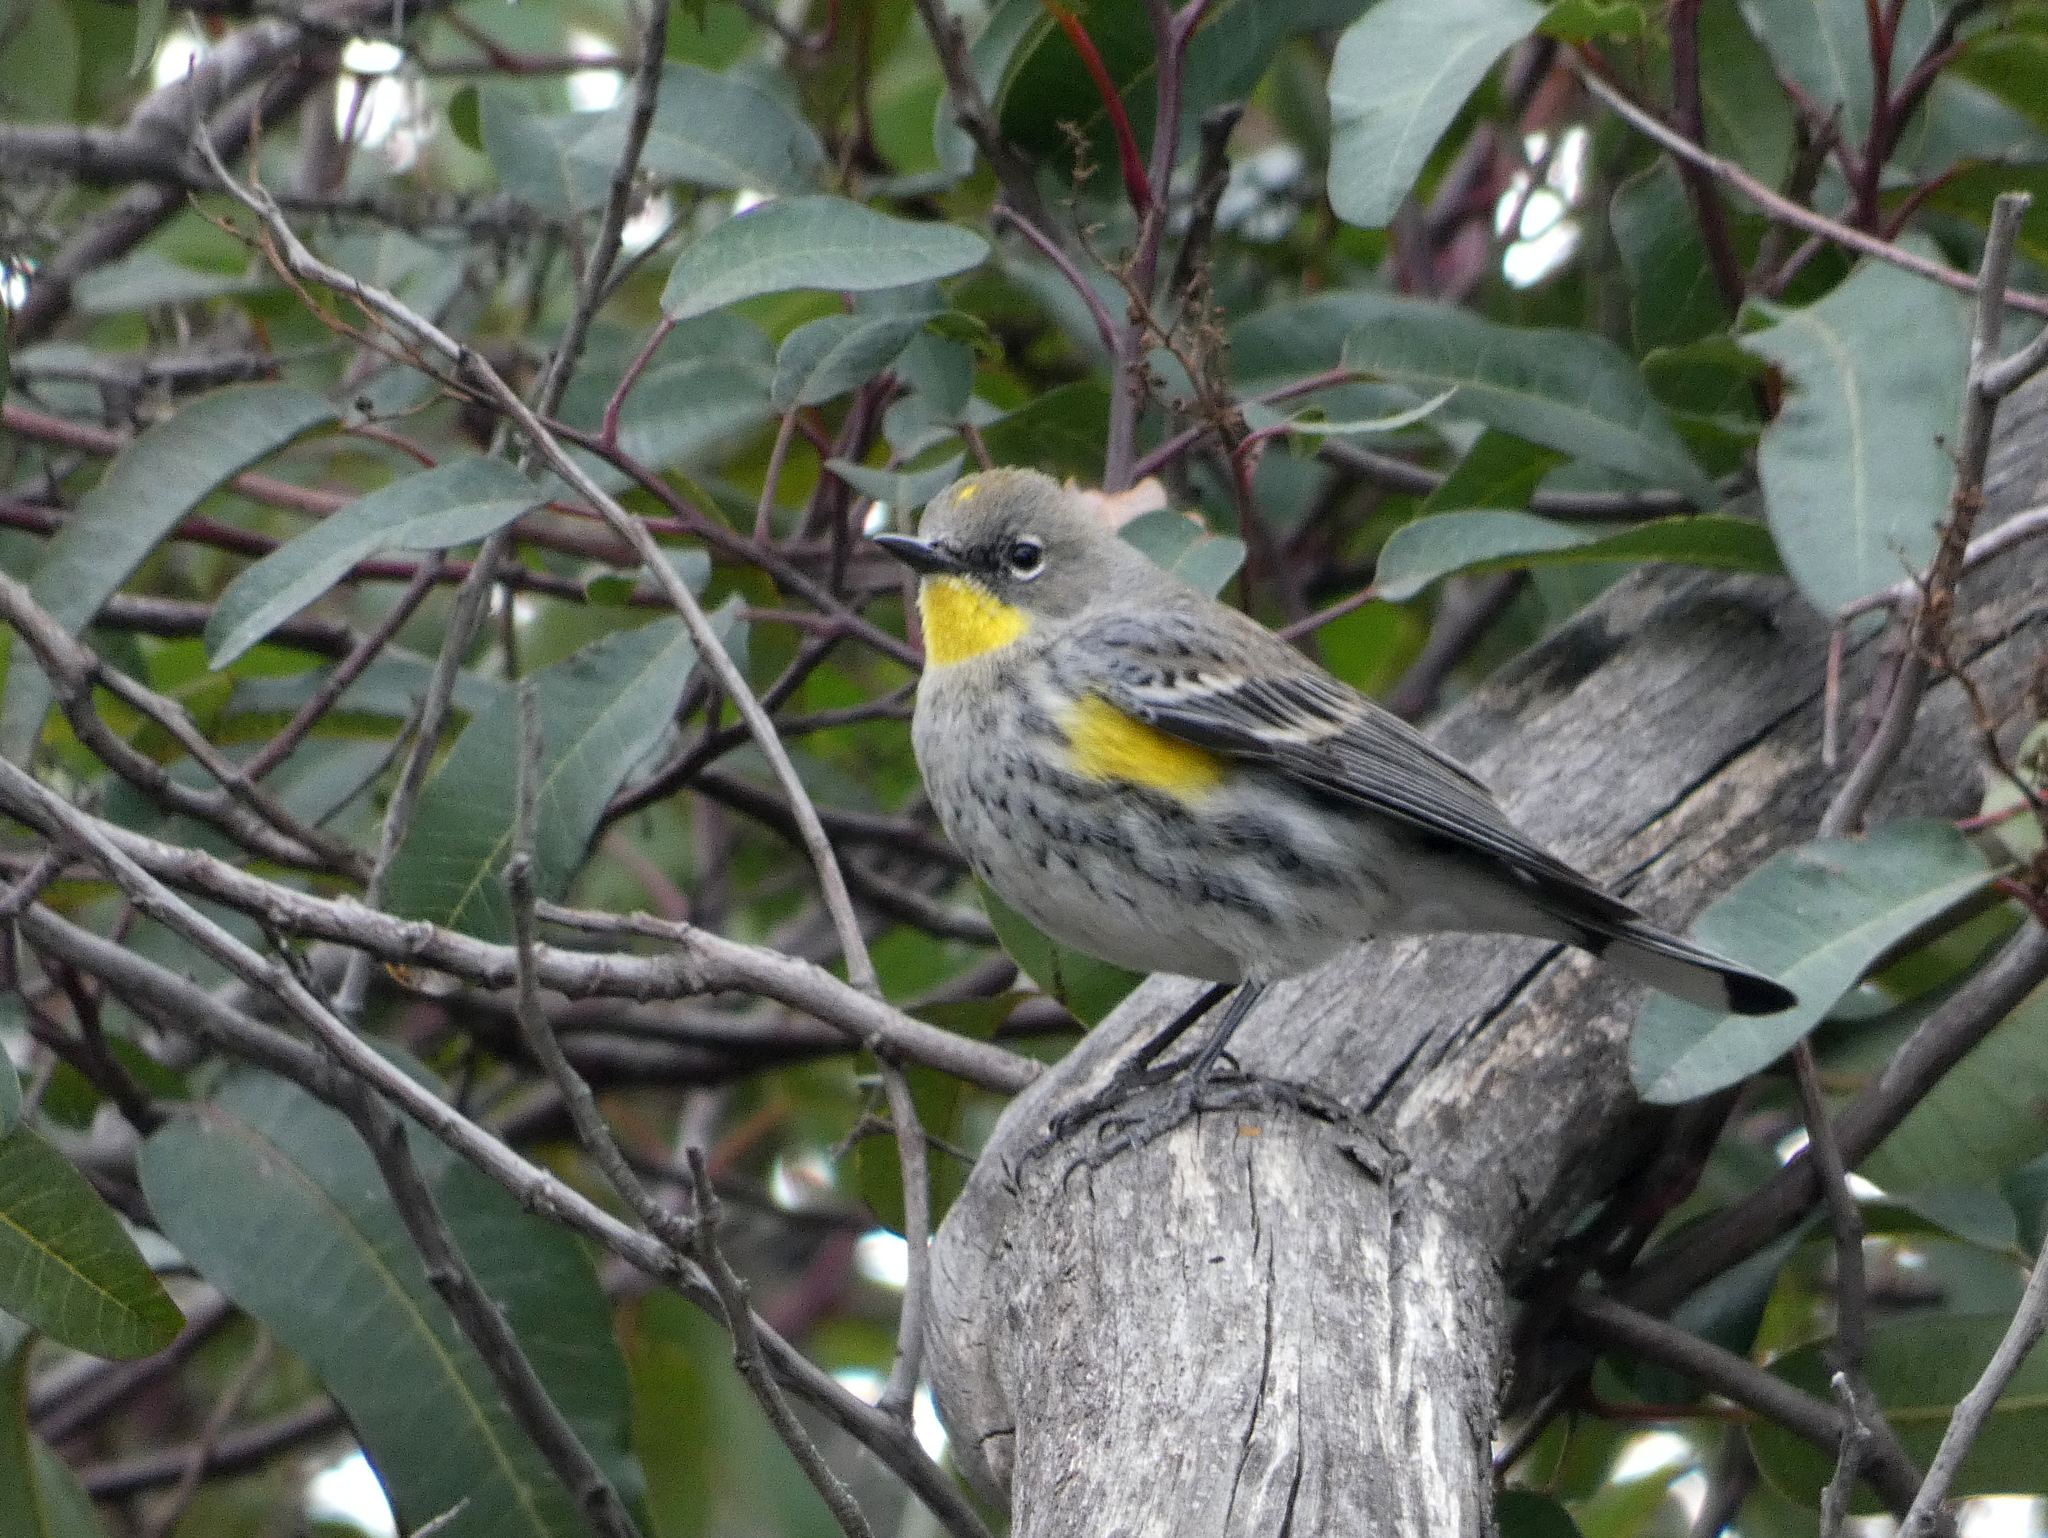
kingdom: Animalia
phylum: Chordata
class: Aves
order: Passeriformes
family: Parulidae
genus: Setophaga
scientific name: Setophaga coronata
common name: Myrtle warbler
